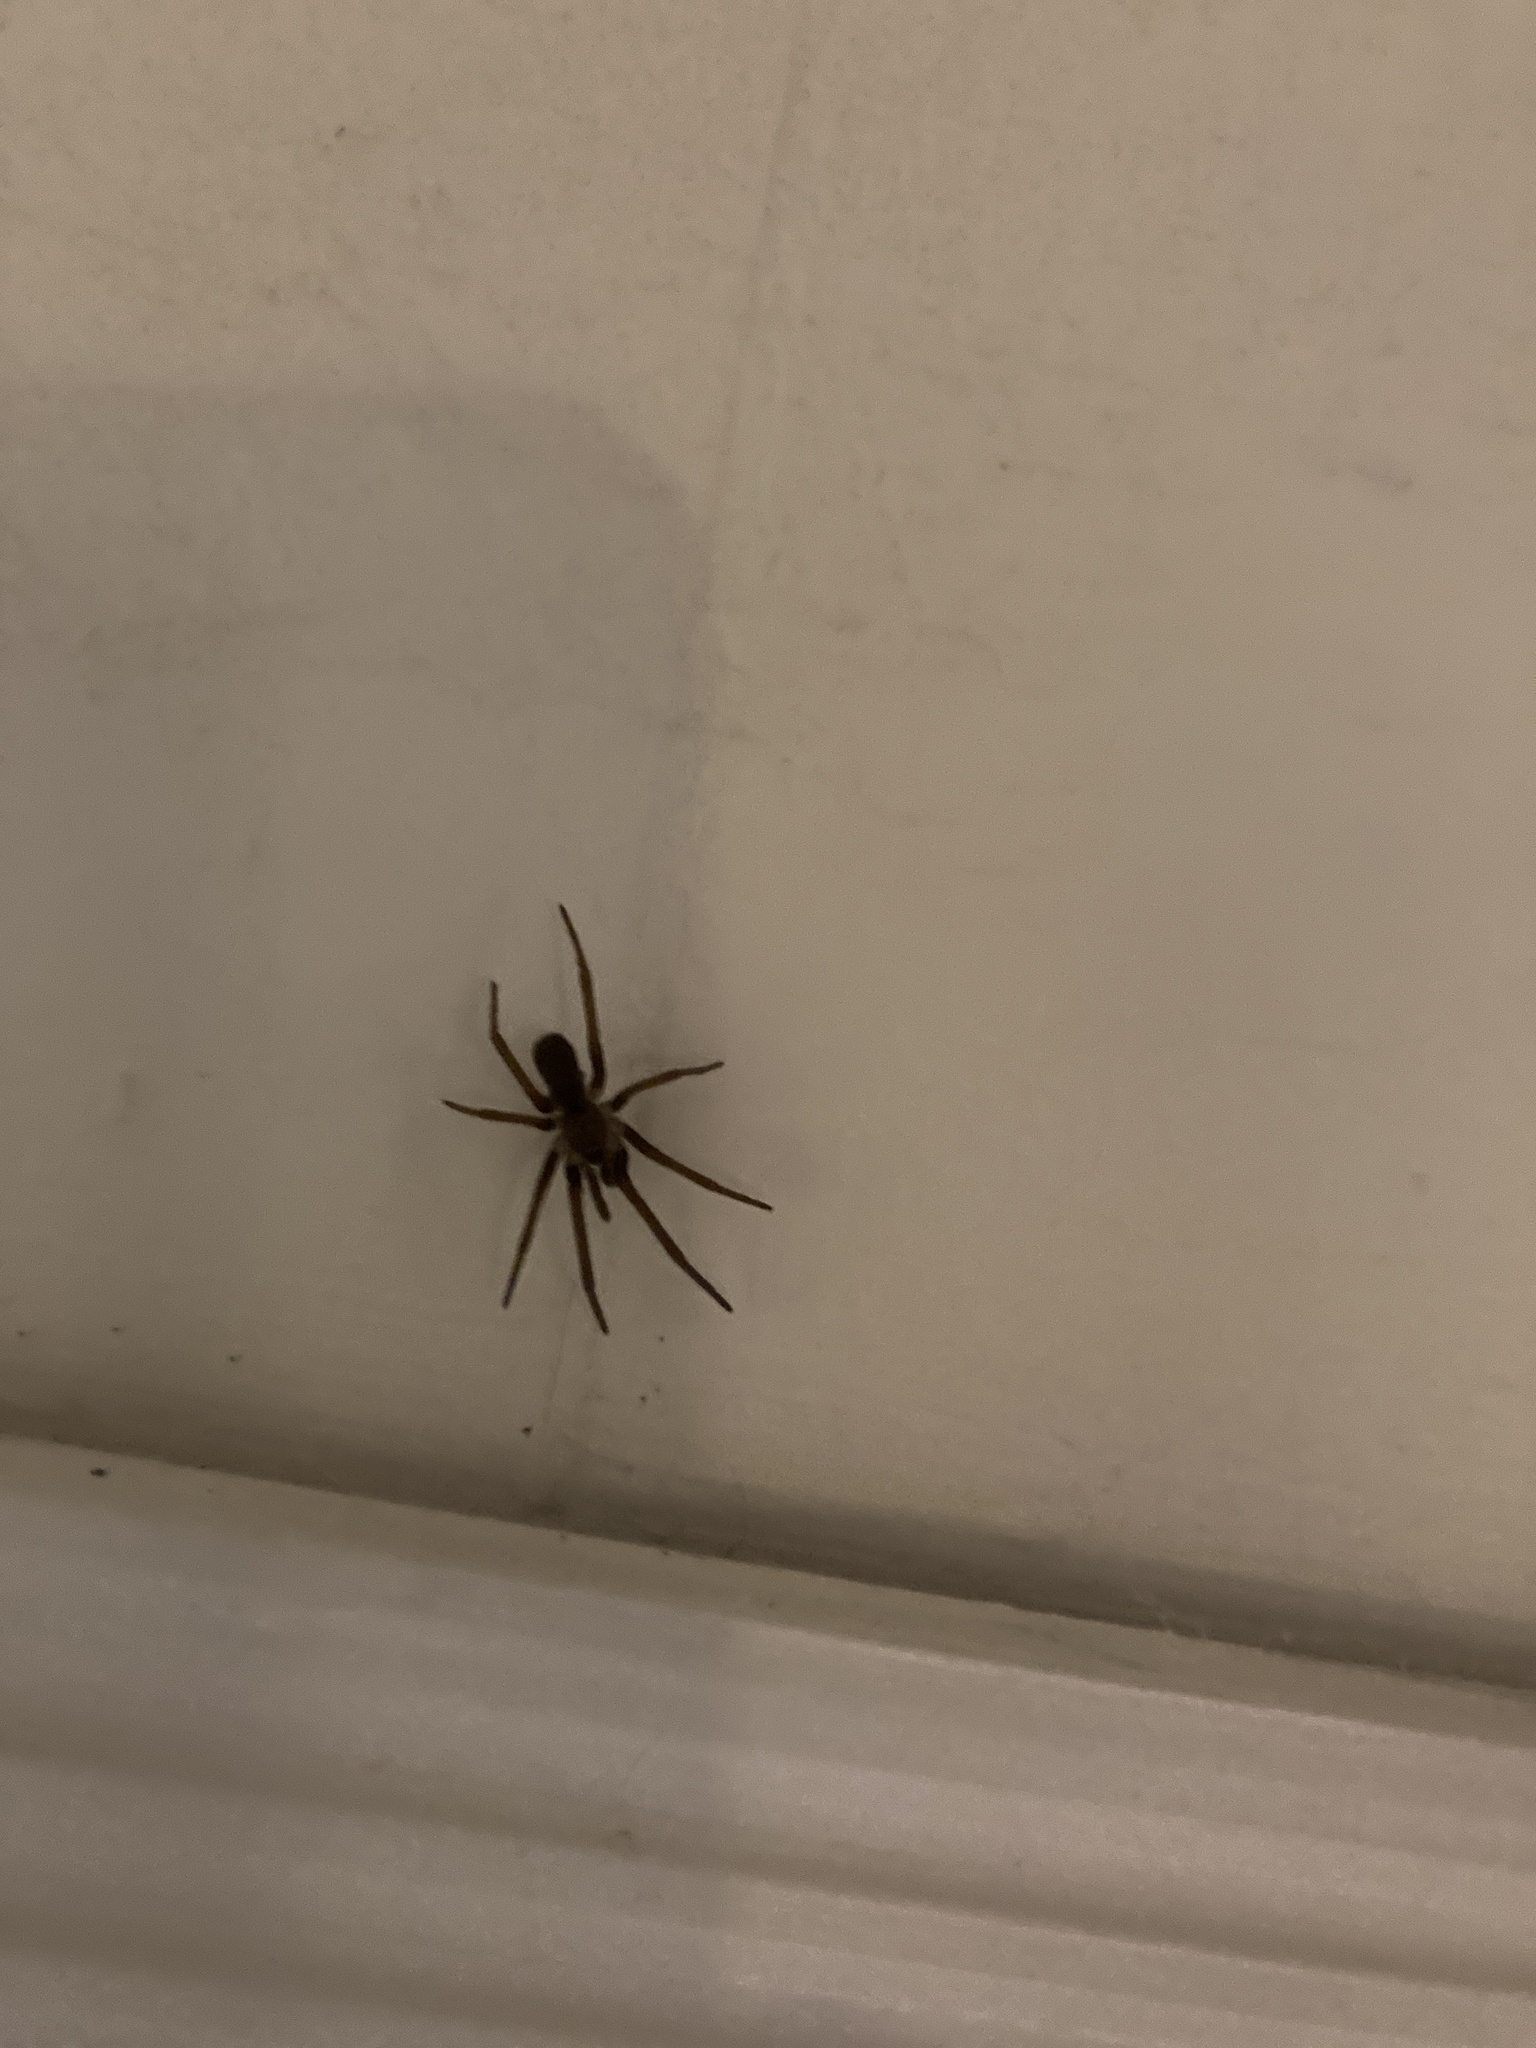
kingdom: Animalia
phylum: Arthropoda
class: Arachnida
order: Araneae
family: Filistatidae
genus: Kukulcania
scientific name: Kukulcania hibernalis
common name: Crevice weaver
